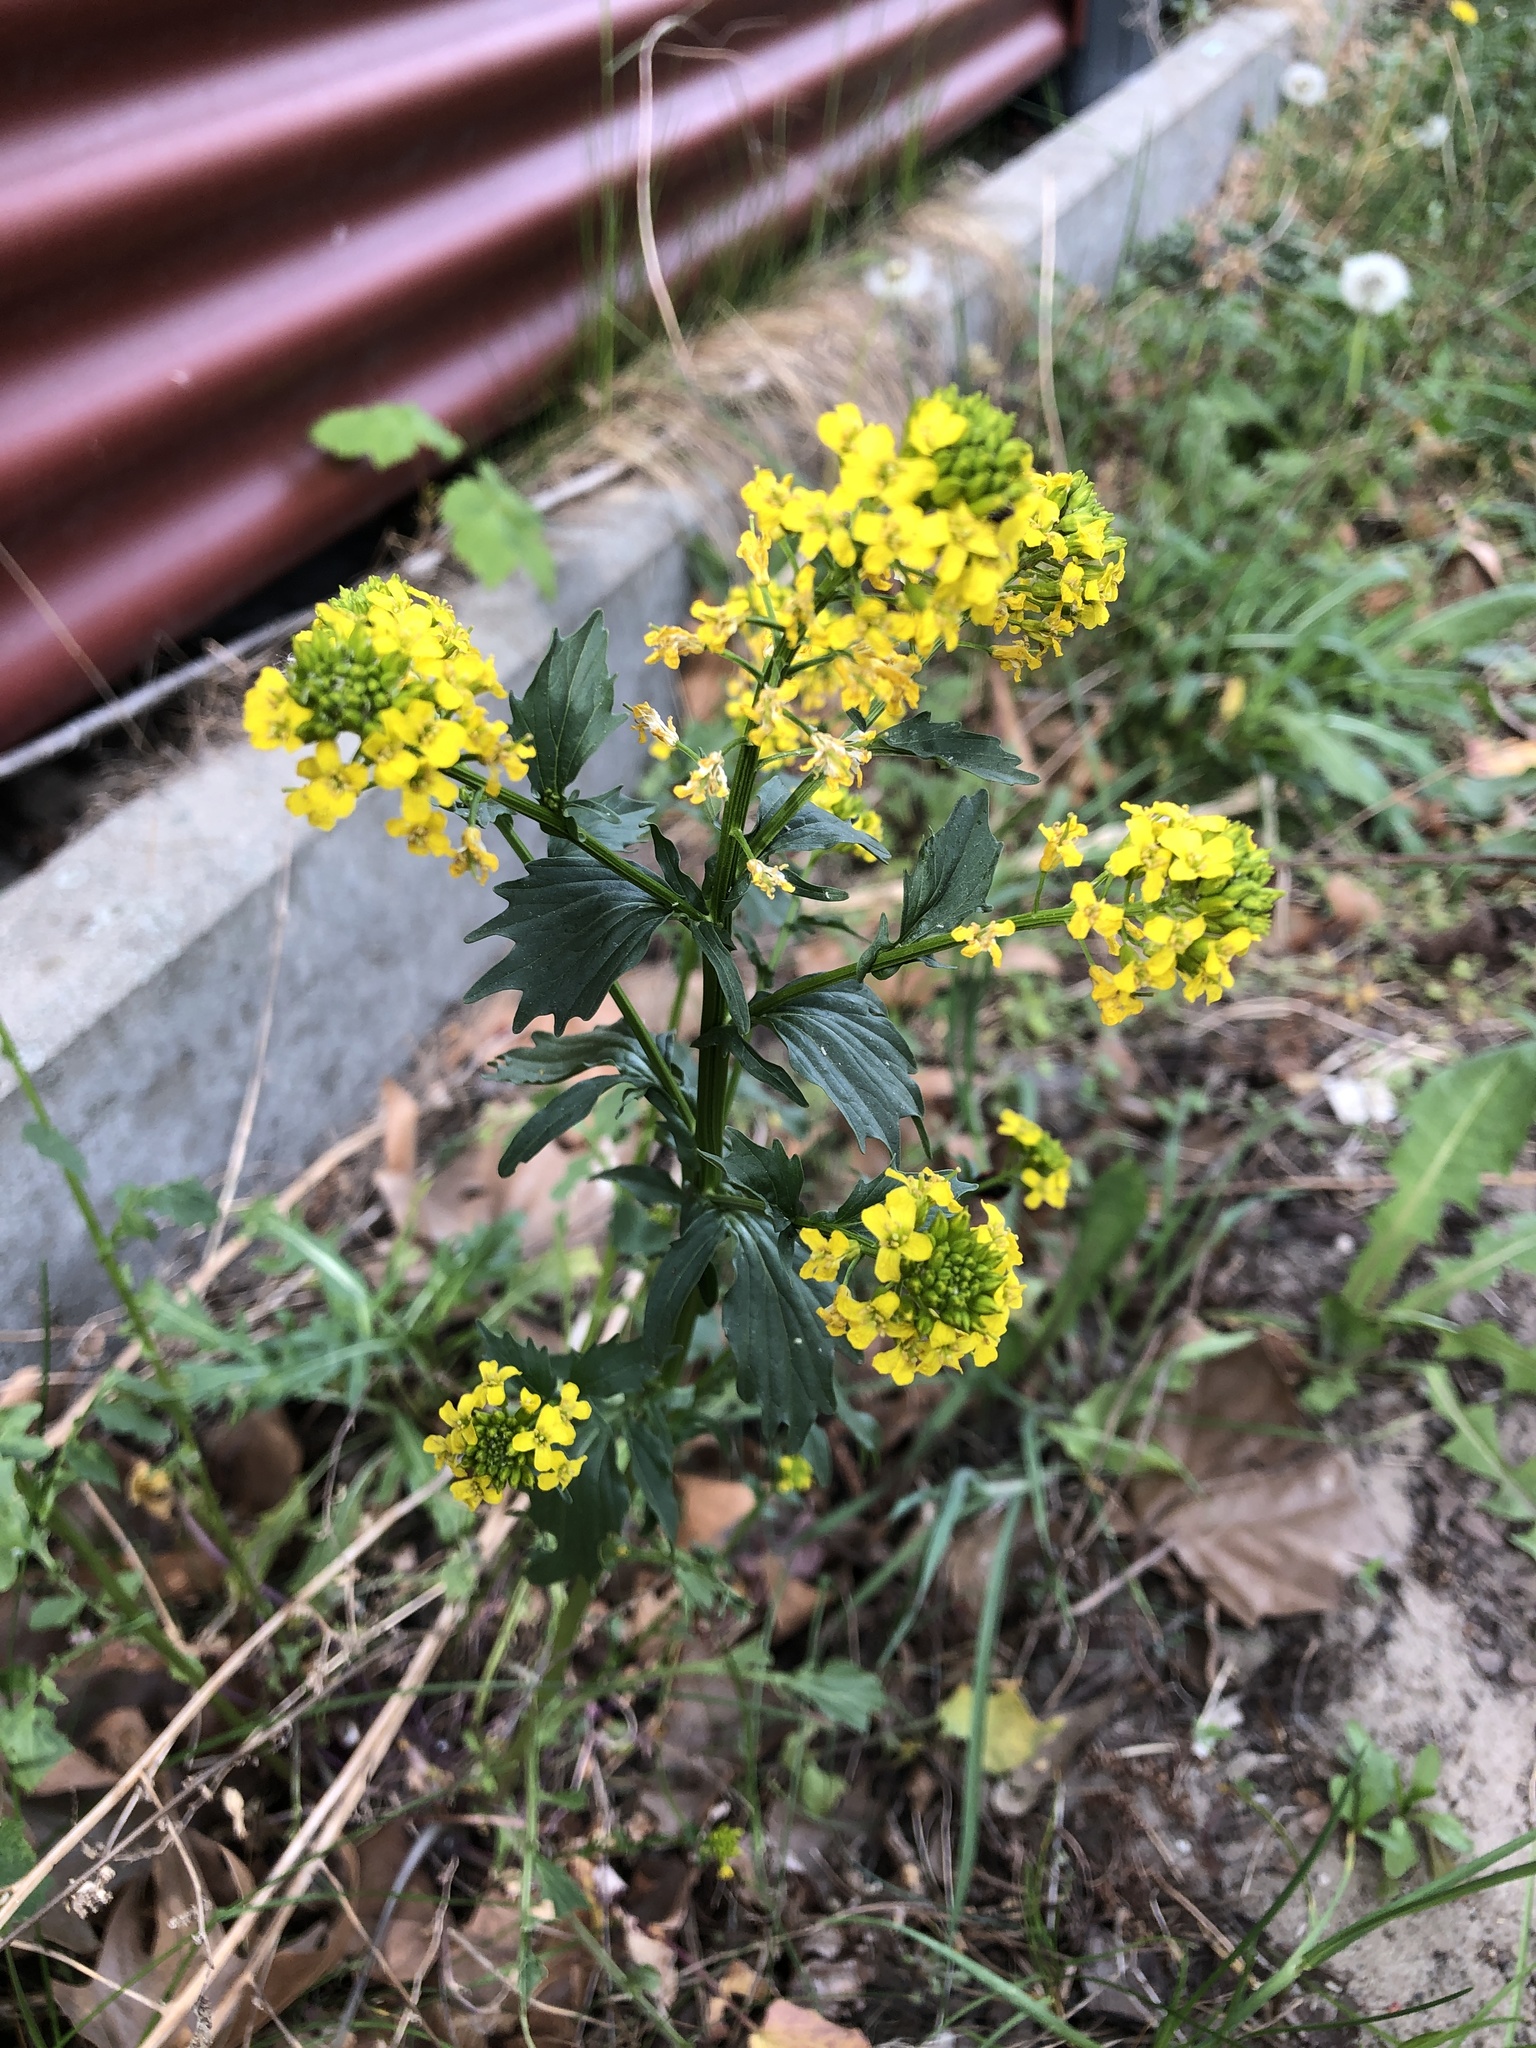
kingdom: Plantae
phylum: Tracheophyta
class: Magnoliopsida
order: Brassicales
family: Brassicaceae
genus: Barbarea
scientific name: Barbarea vulgaris
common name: Cressy-greens
